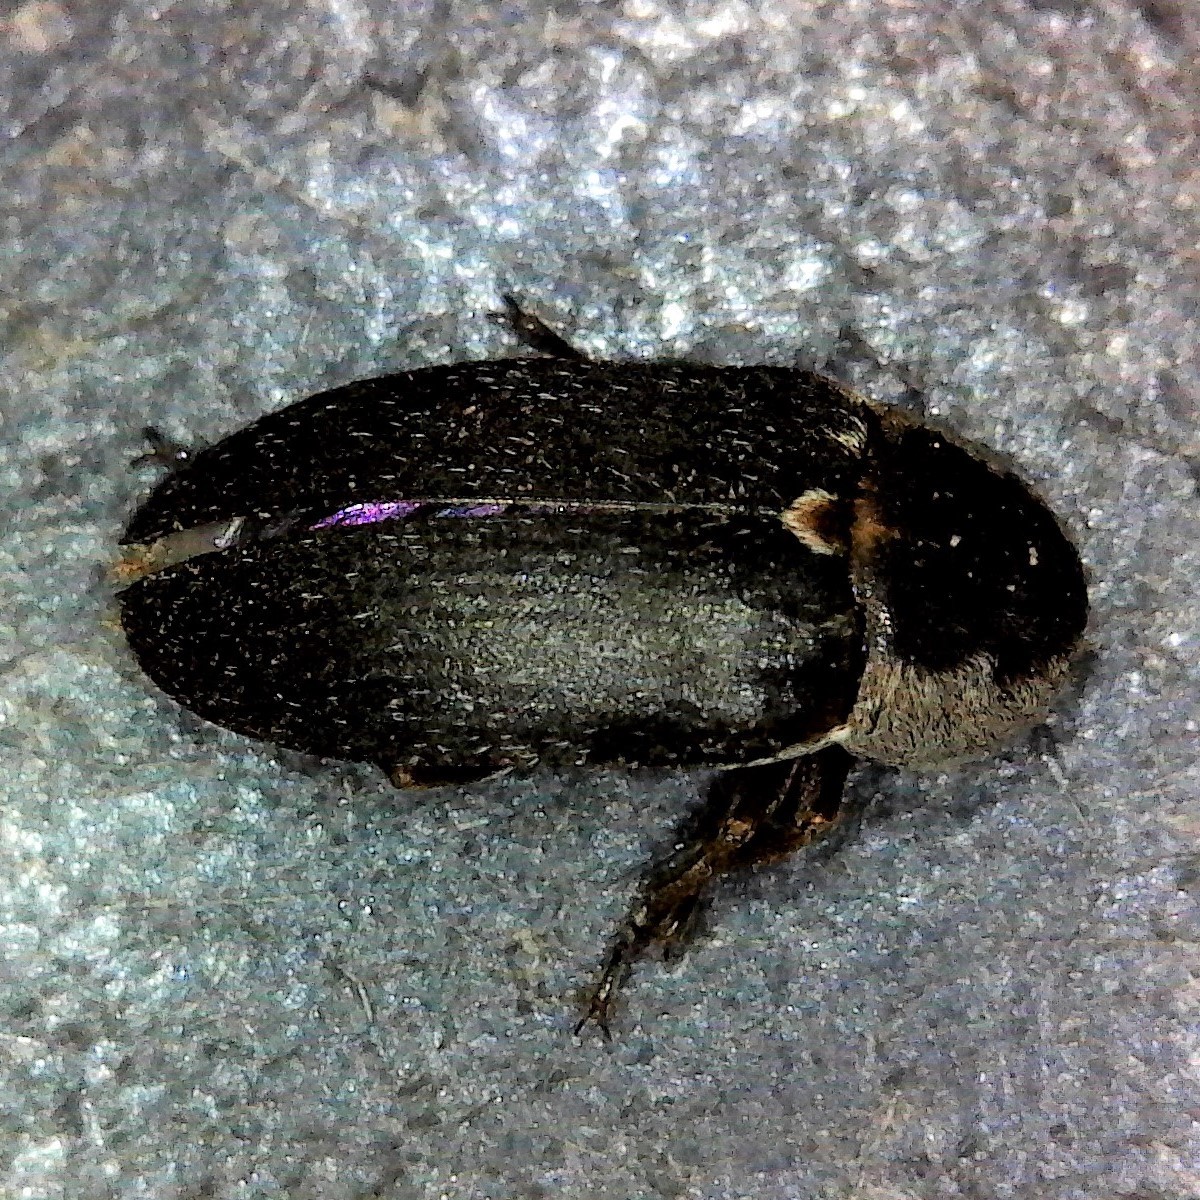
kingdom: Animalia
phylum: Arthropoda
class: Insecta
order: Coleoptera
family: Dermestidae
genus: Dermestes
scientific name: Dermestes maculatus
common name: Hide beetle
